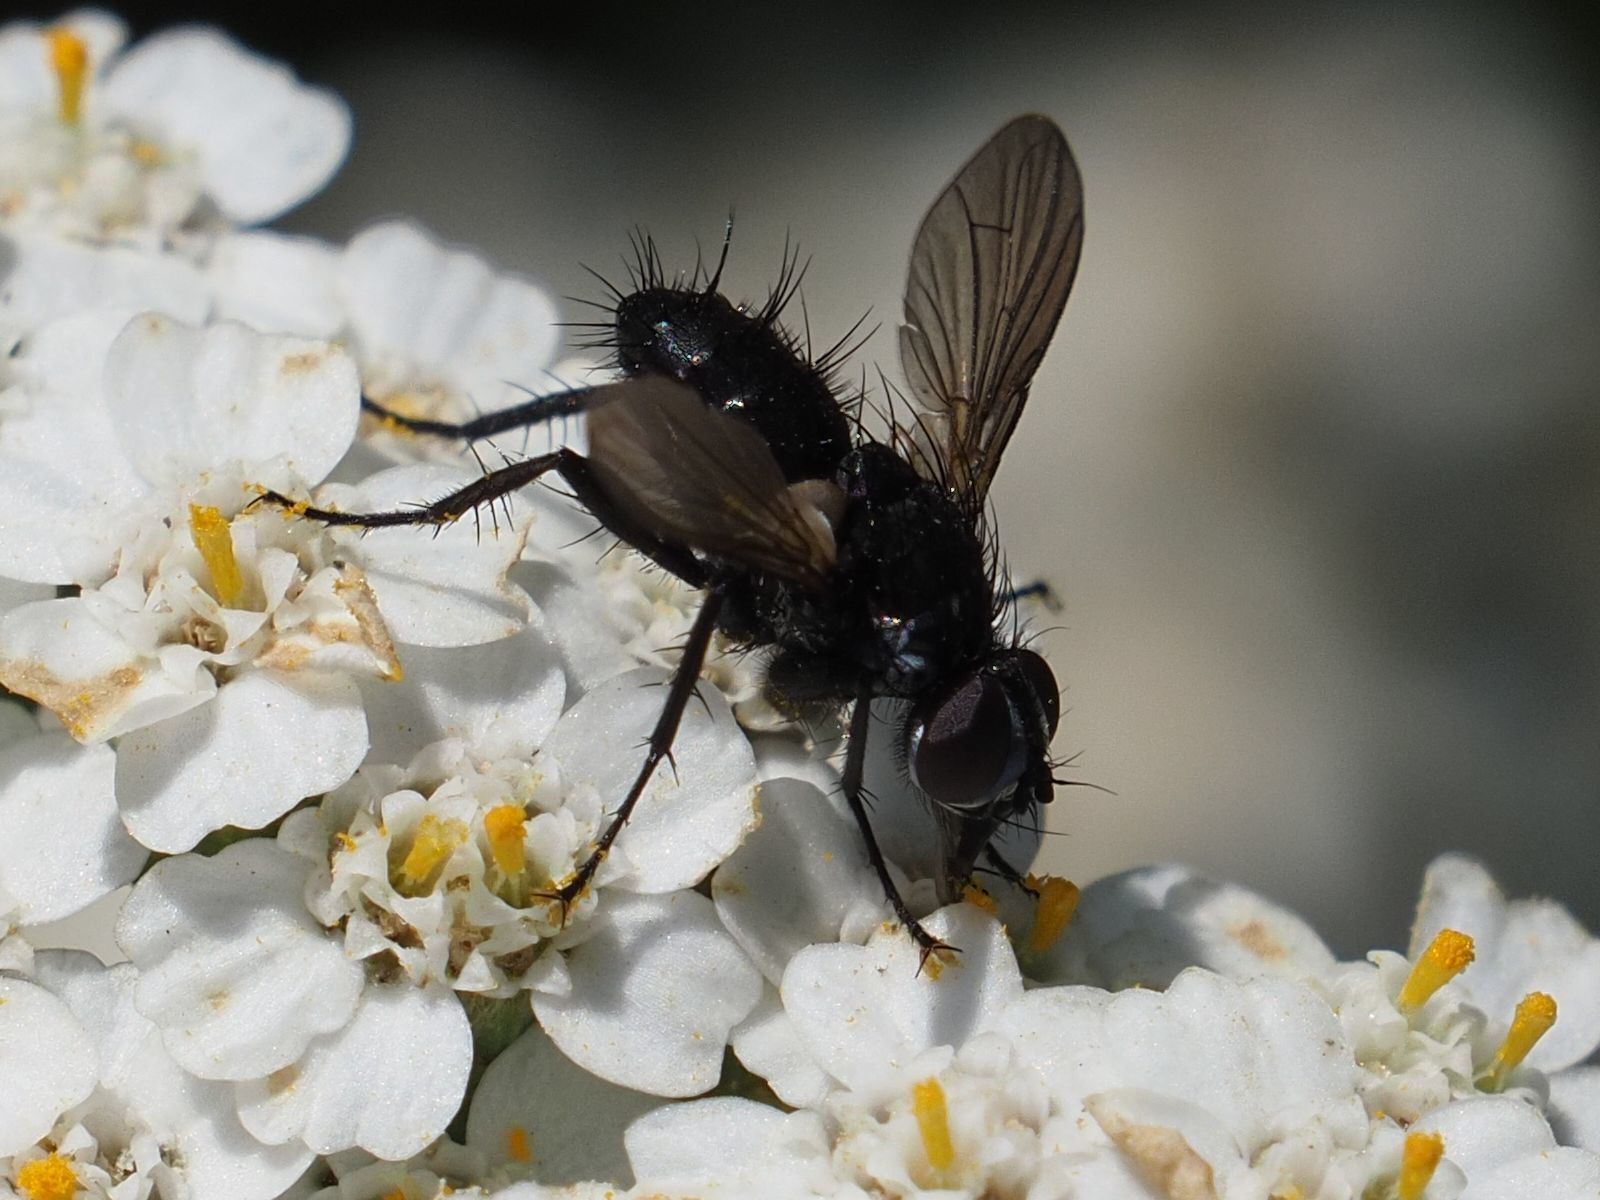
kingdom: Animalia
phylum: Arthropoda
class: Insecta
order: Diptera
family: Tachinidae
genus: Phania
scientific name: Phania funesta
